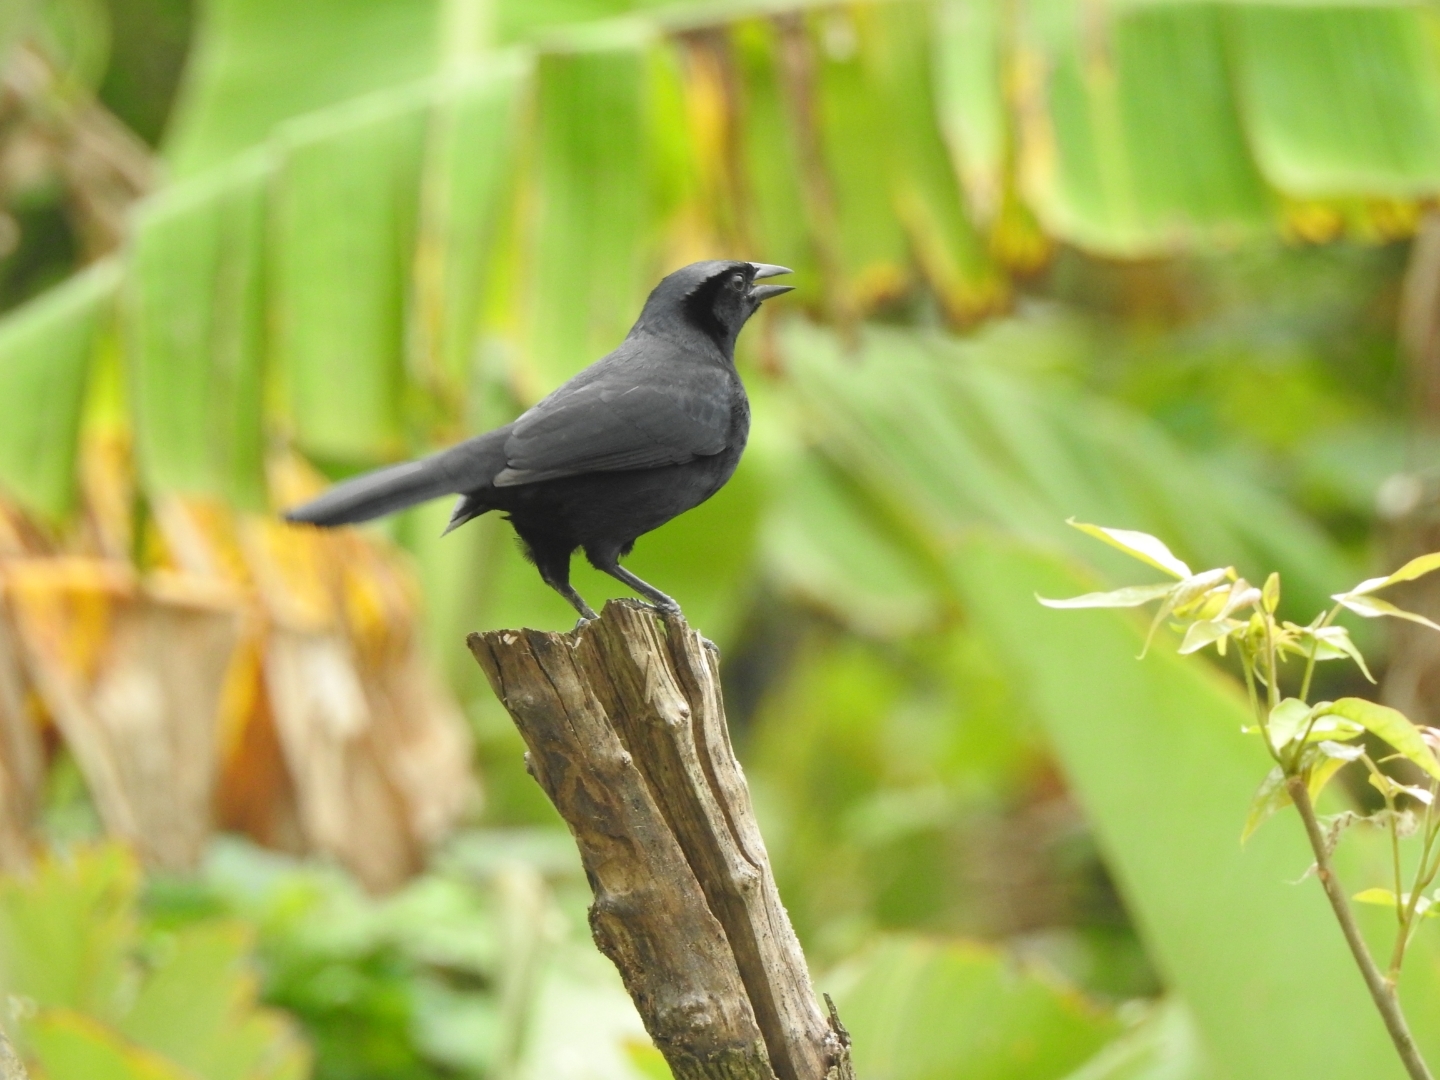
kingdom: Animalia
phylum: Chordata
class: Aves
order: Passeriformes
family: Icteridae
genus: Dives
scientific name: Dives dives
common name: Melodious blackbird
